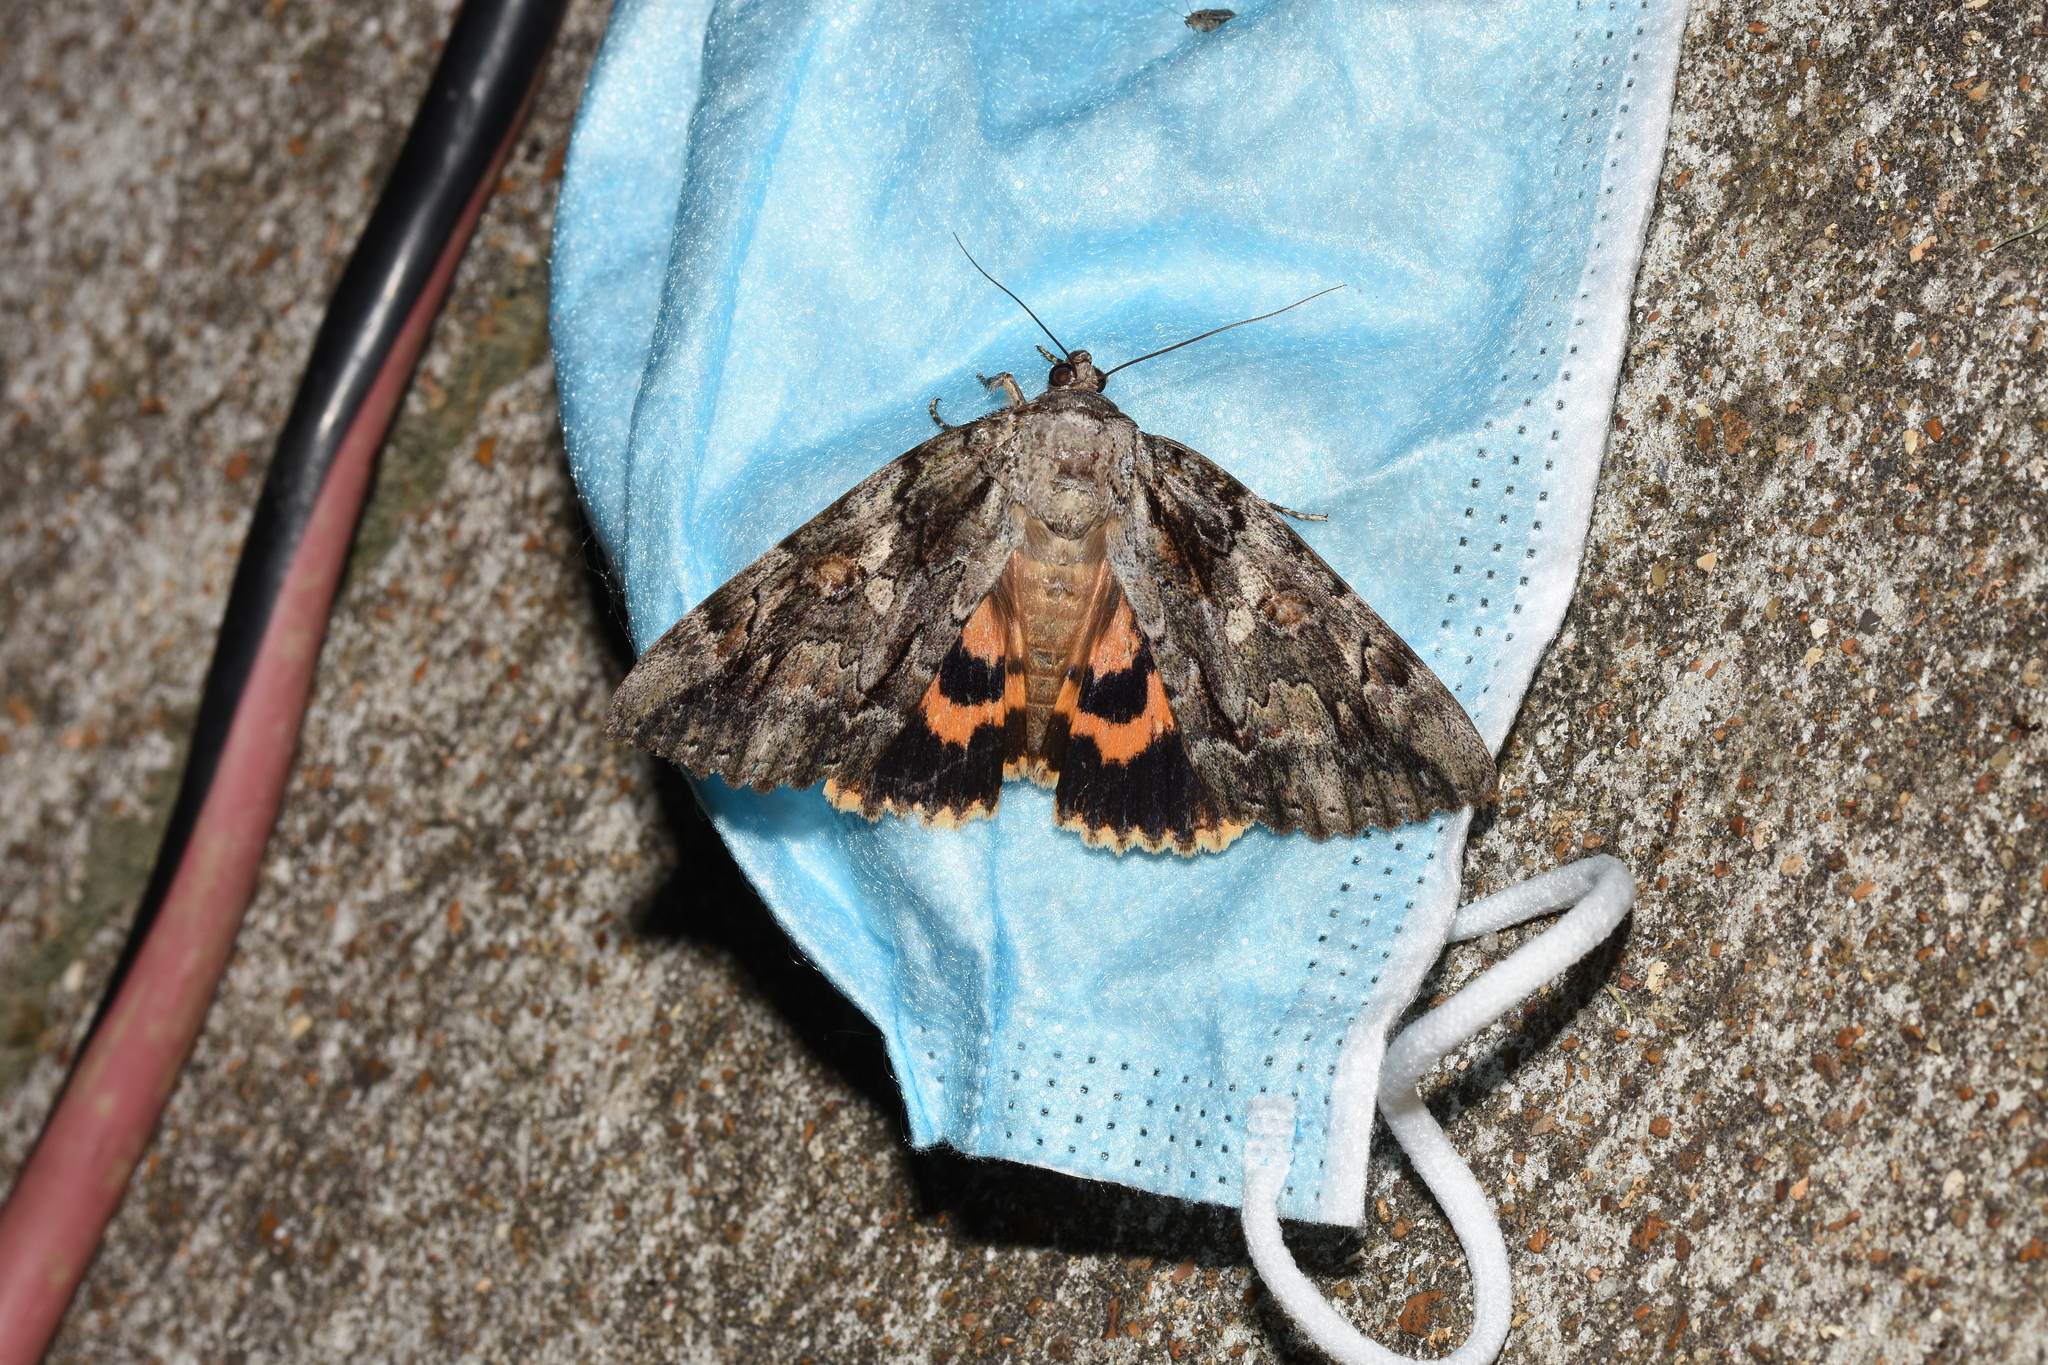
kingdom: Animalia
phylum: Arthropoda
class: Insecta
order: Lepidoptera
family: Erebidae
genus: Catocala
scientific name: Catocala neogama
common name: Bride underwing
